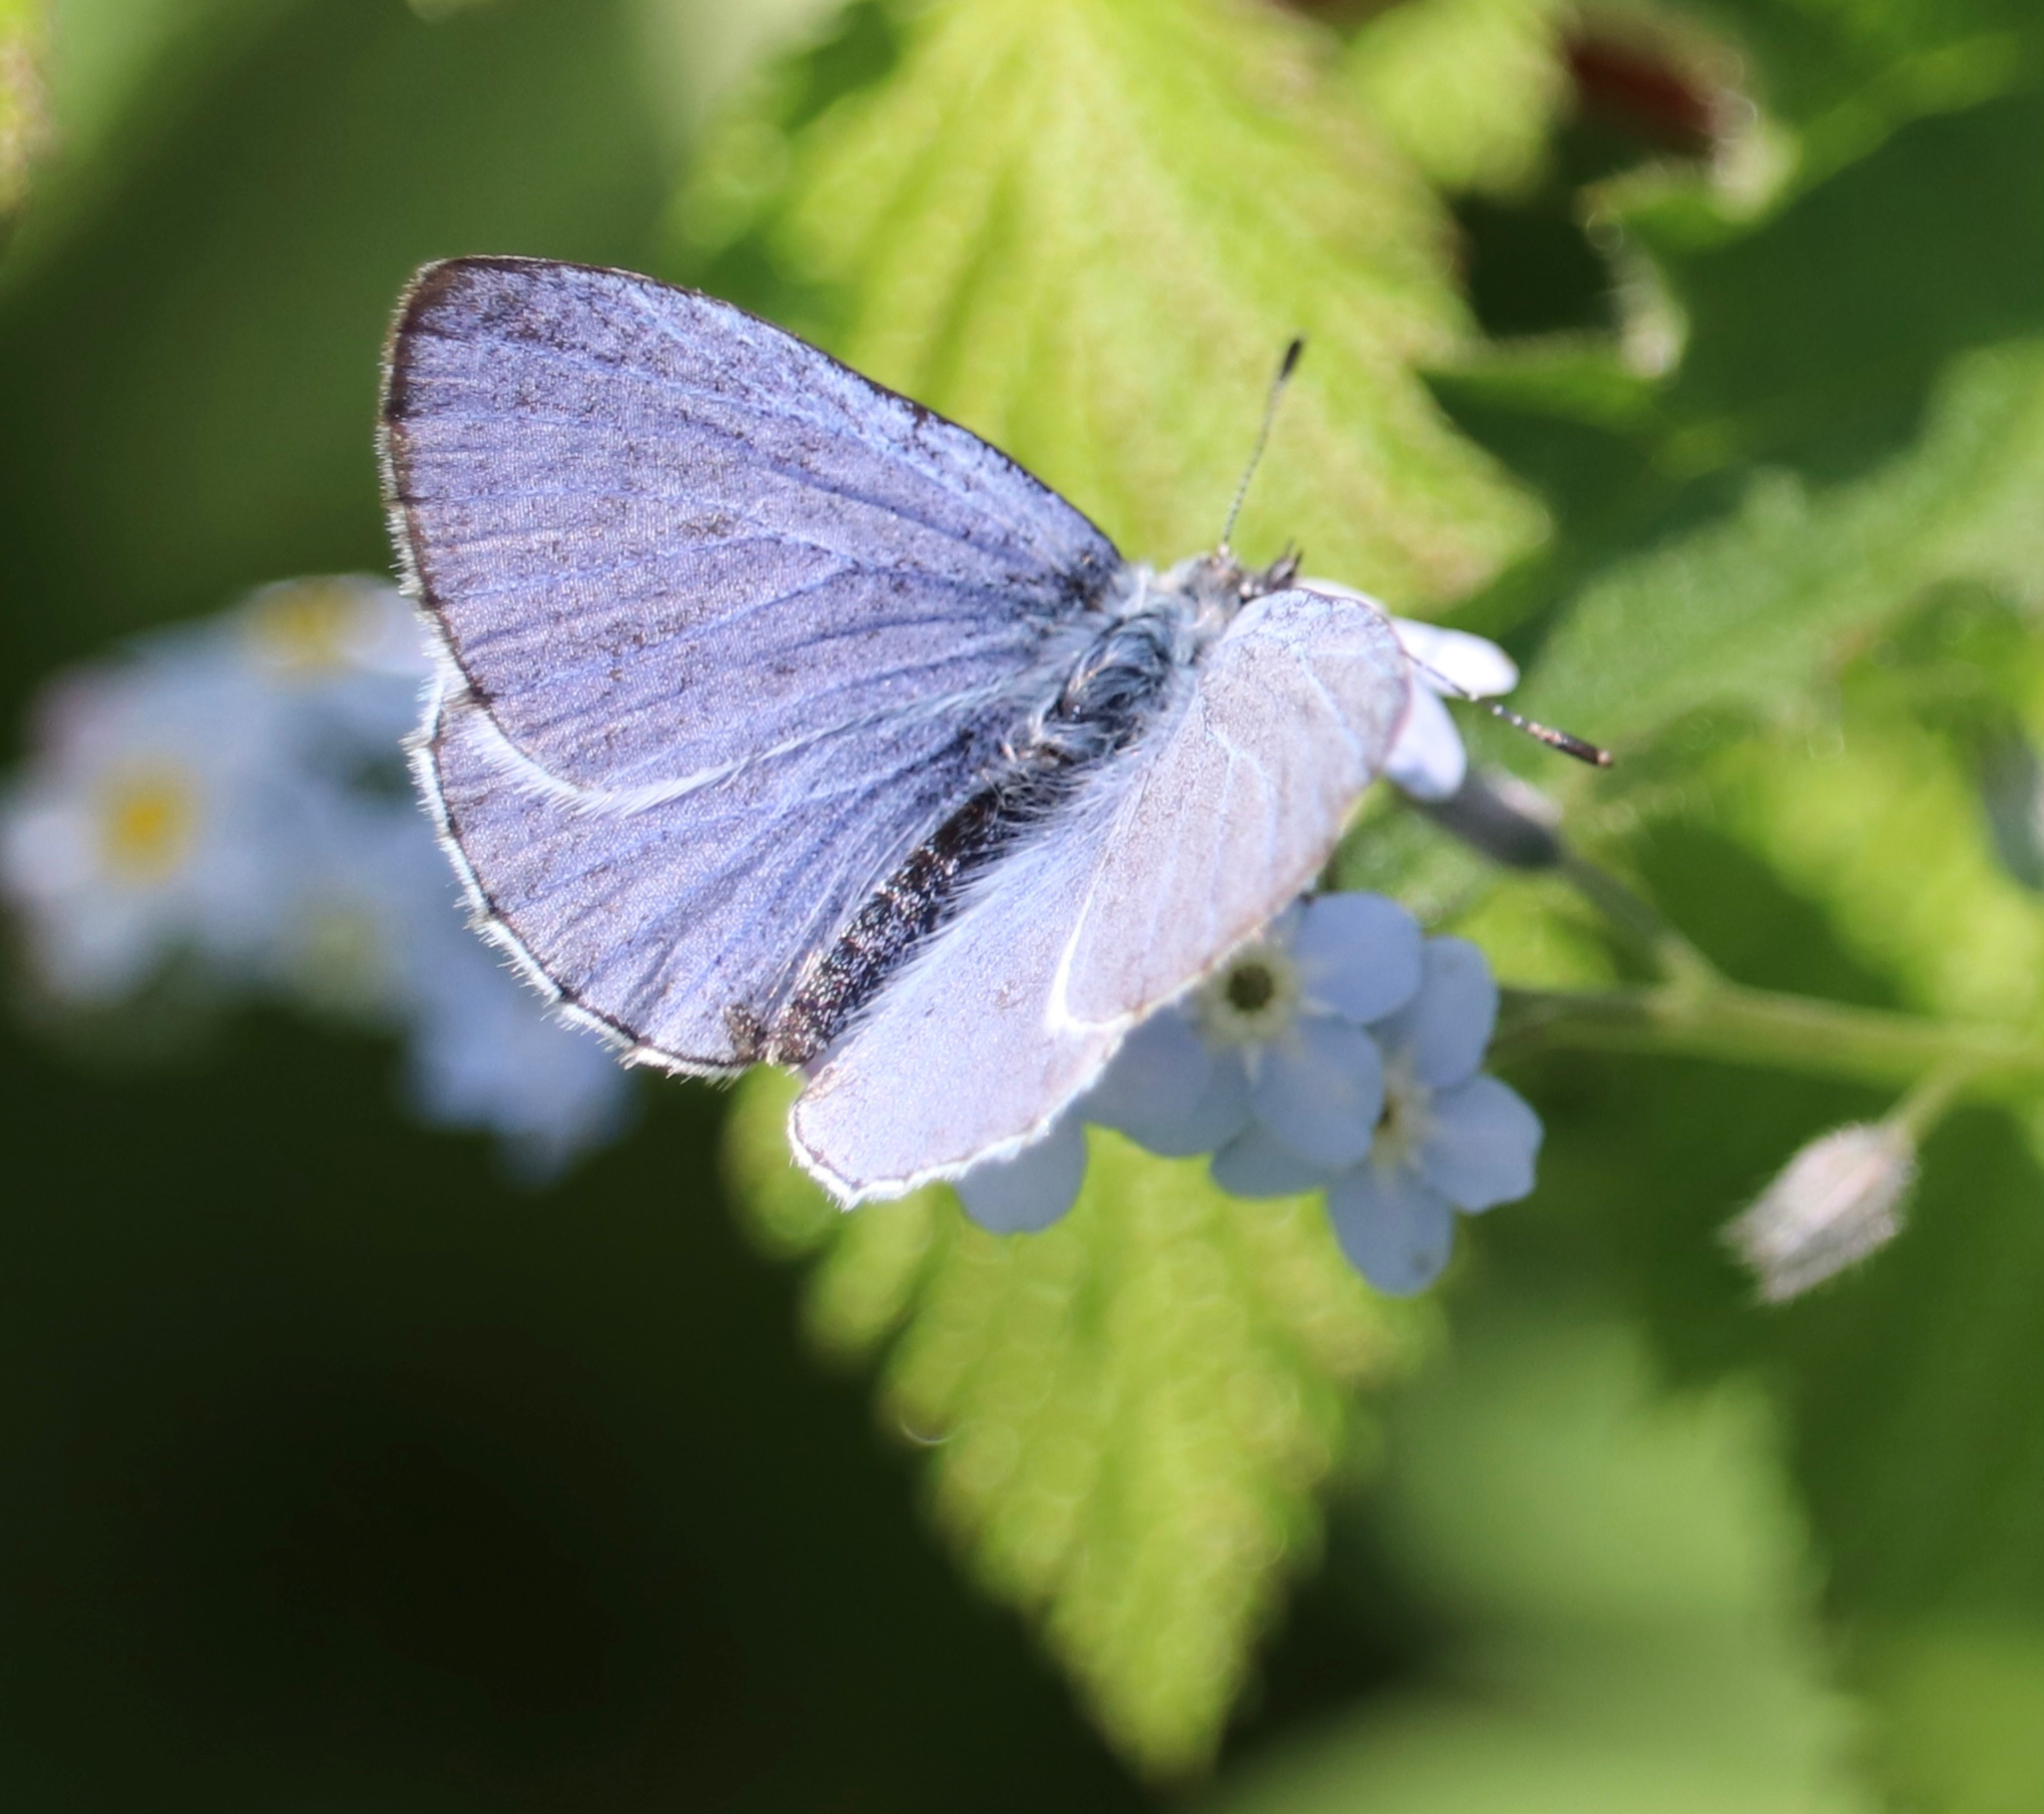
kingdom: Animalia
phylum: Arthropoda
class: Insecta
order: Lepidoptera
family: Lycaenidae
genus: Celastrina
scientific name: Celastrina argiolus
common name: Holly blue
